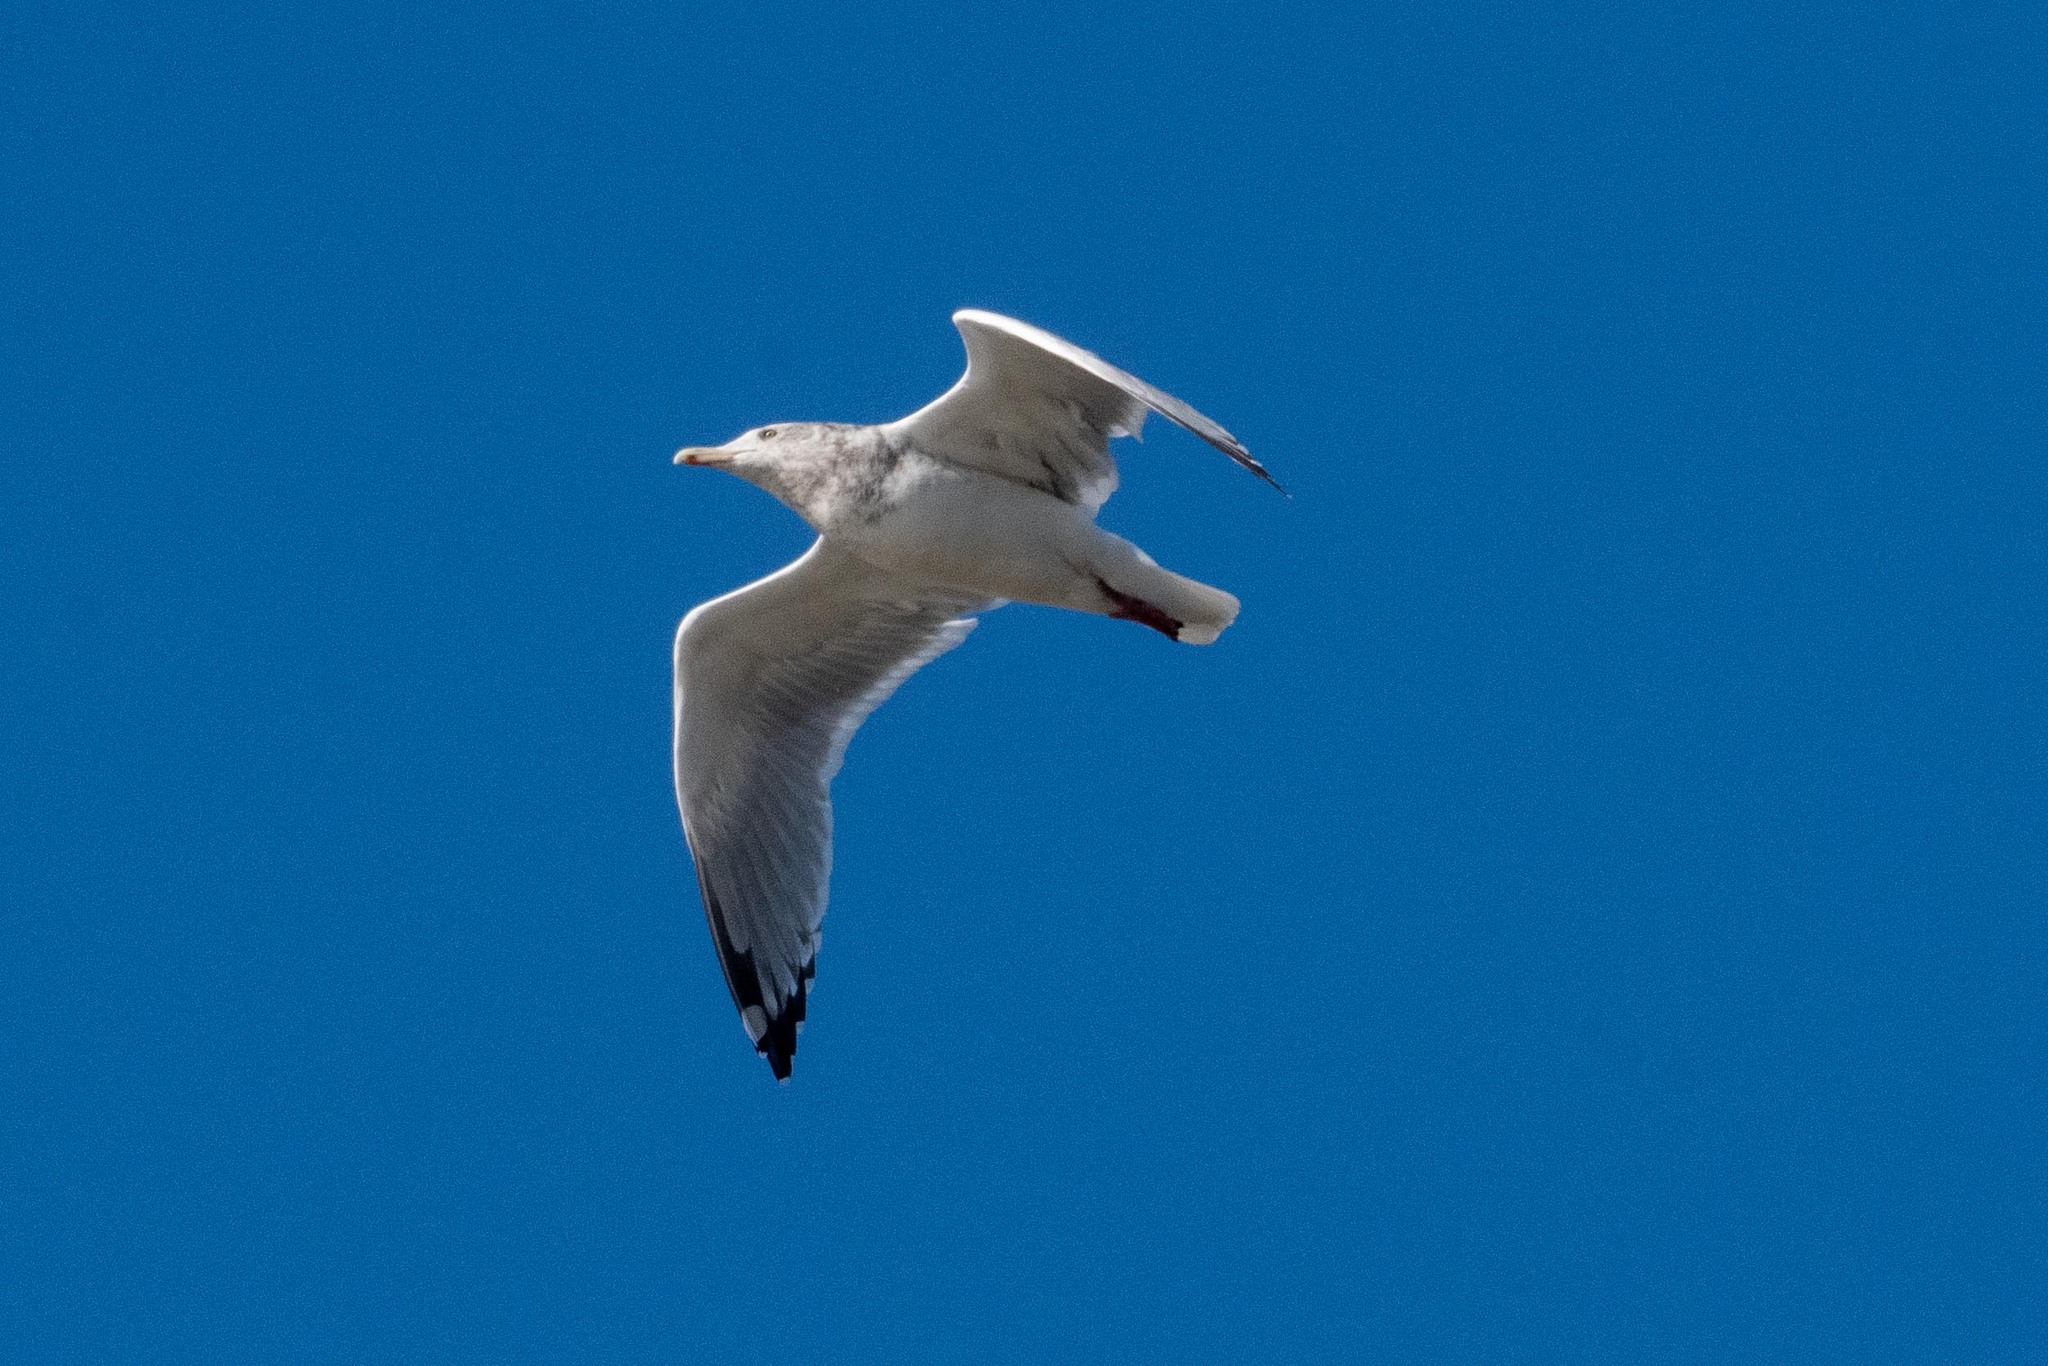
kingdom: Animalia
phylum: Chordata
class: Aves
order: Charadriiformes
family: Laridae
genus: Larus
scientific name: Larus argentatus
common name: Herring gull
